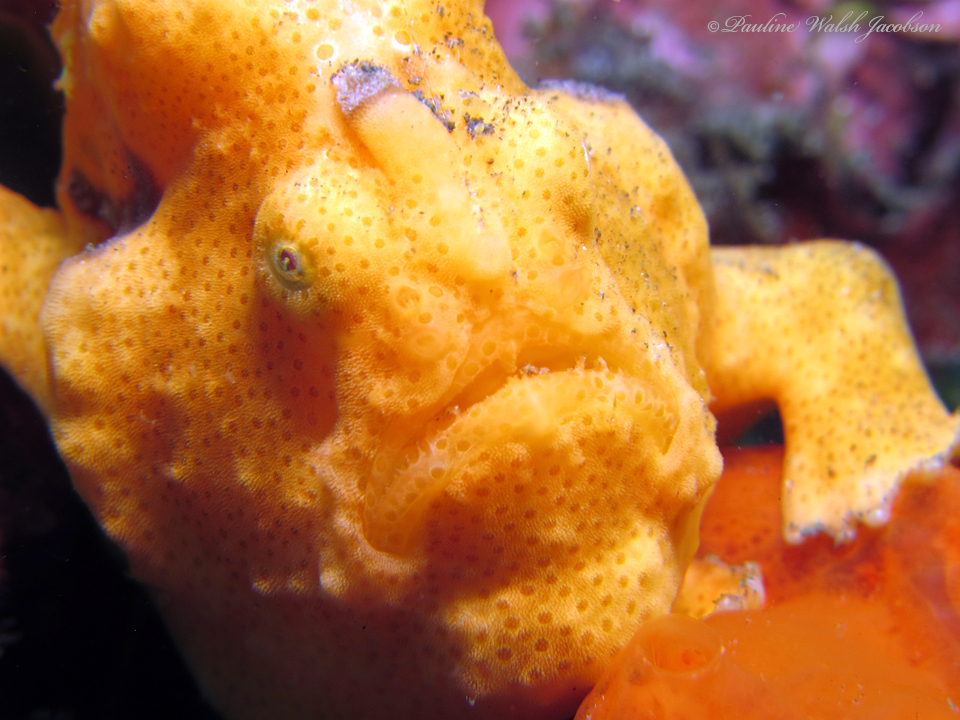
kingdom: Animalia
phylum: Chordata
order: Lophiiformes
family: Antennariidae
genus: Antennarius
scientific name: Antennarius pictus
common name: Painted frogfish
